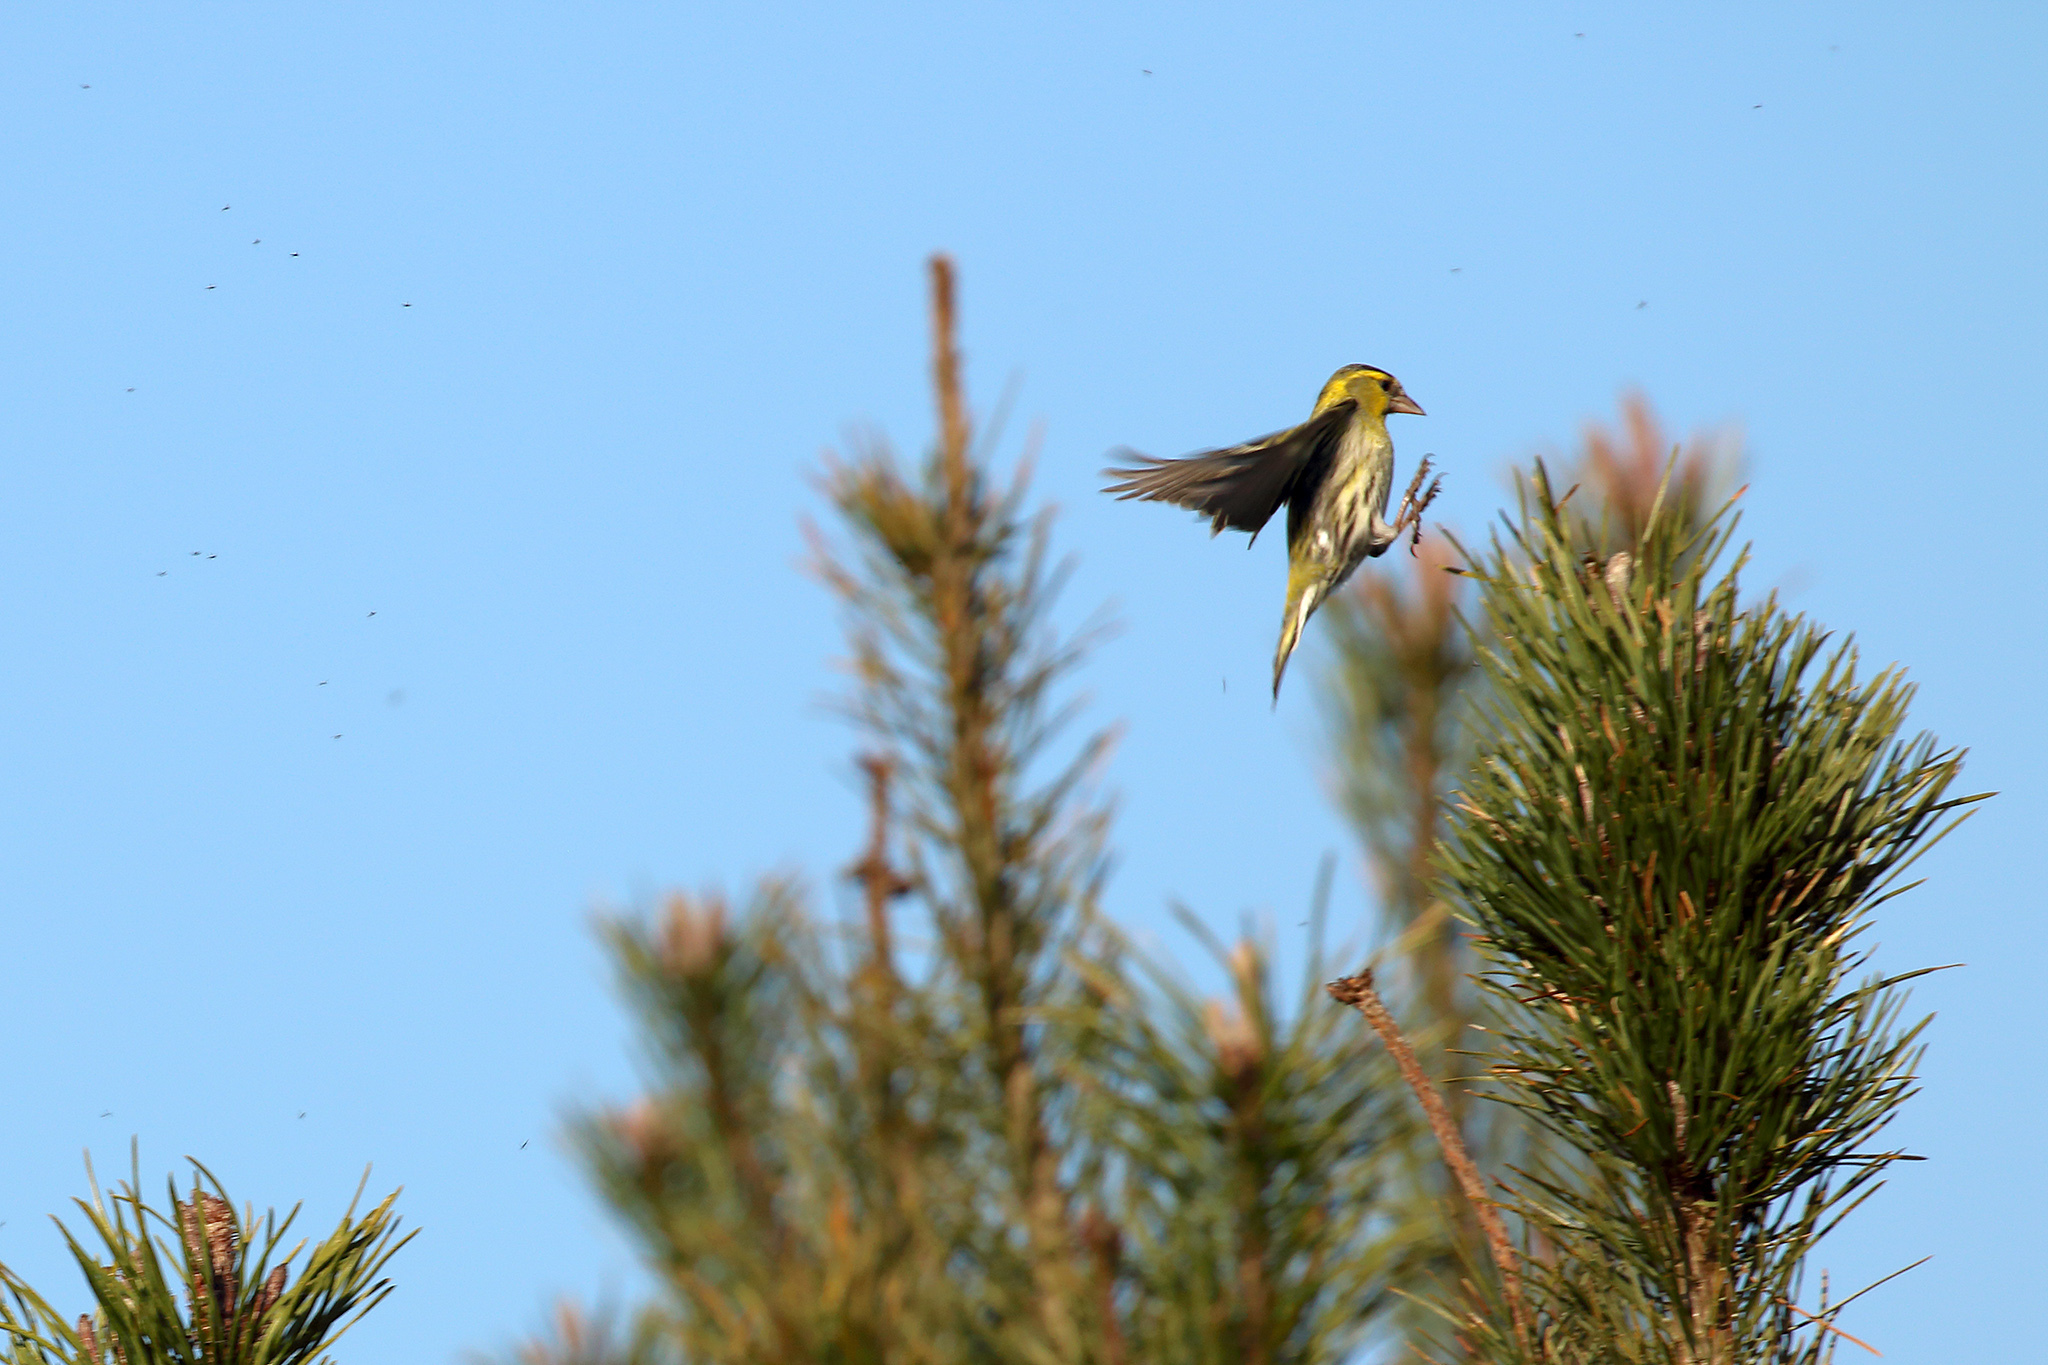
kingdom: Animalia
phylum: Chordata
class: Aves
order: Passeriformes
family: Fringillidae
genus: Spinus
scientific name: Spinus spinus
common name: Eurasian siskin
